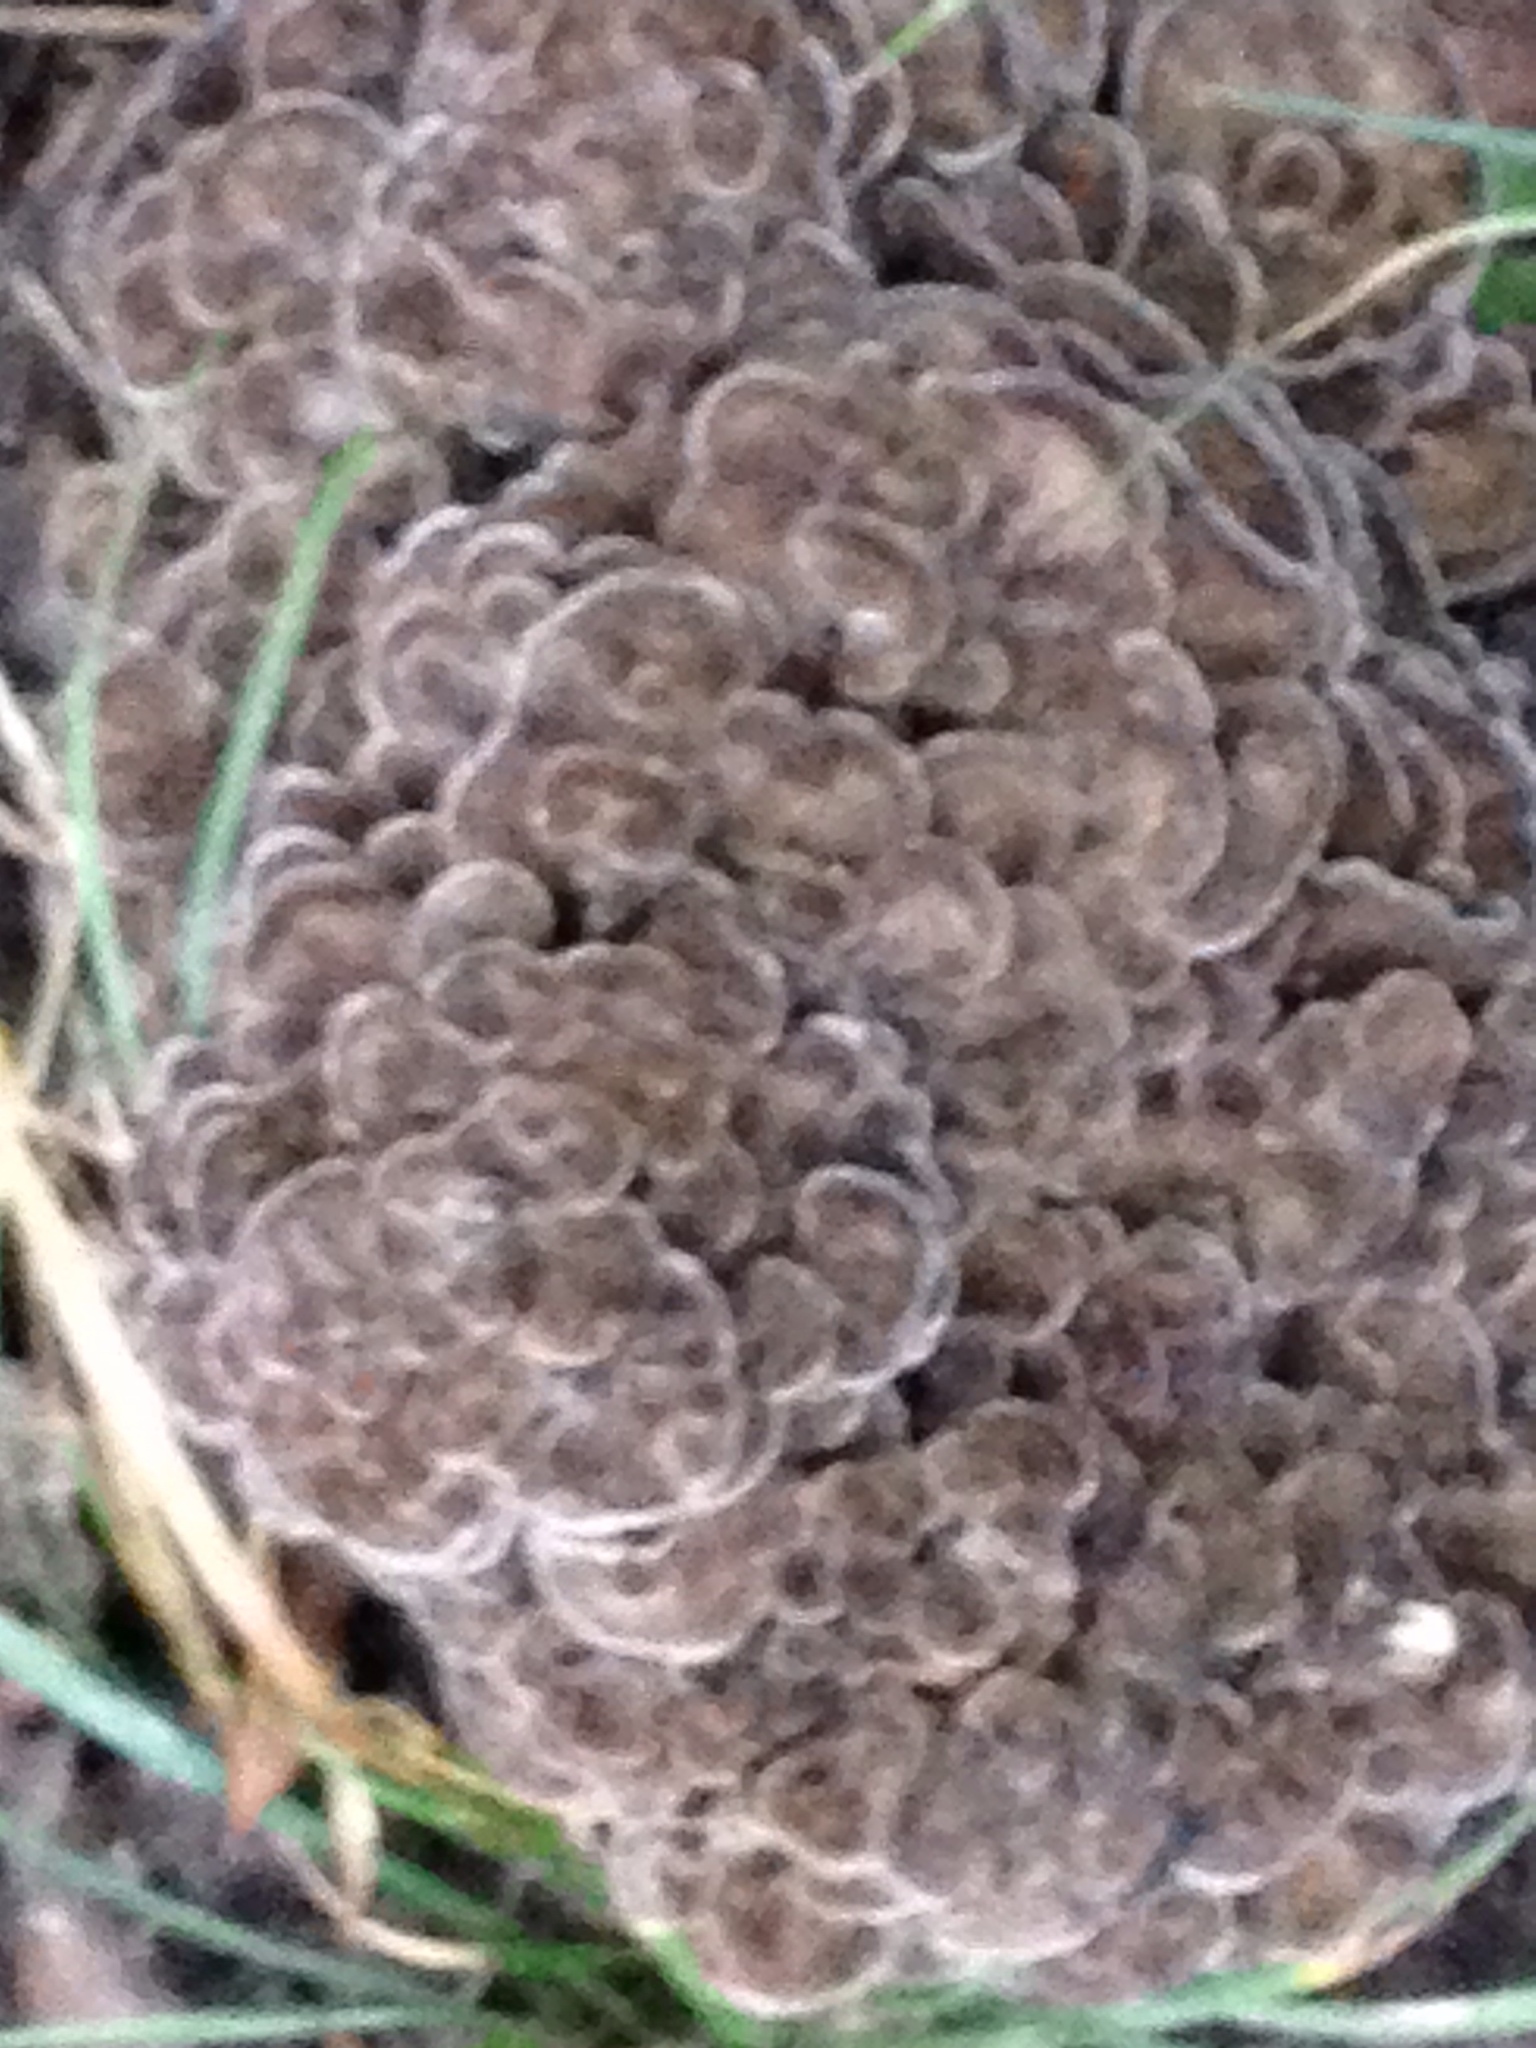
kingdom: Fungi
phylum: Basidiomycota
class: Agaricomycetes
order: Polyporales
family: Grifolaceae
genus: Grifola
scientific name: Grifola frondosa
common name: Hen of the woods
